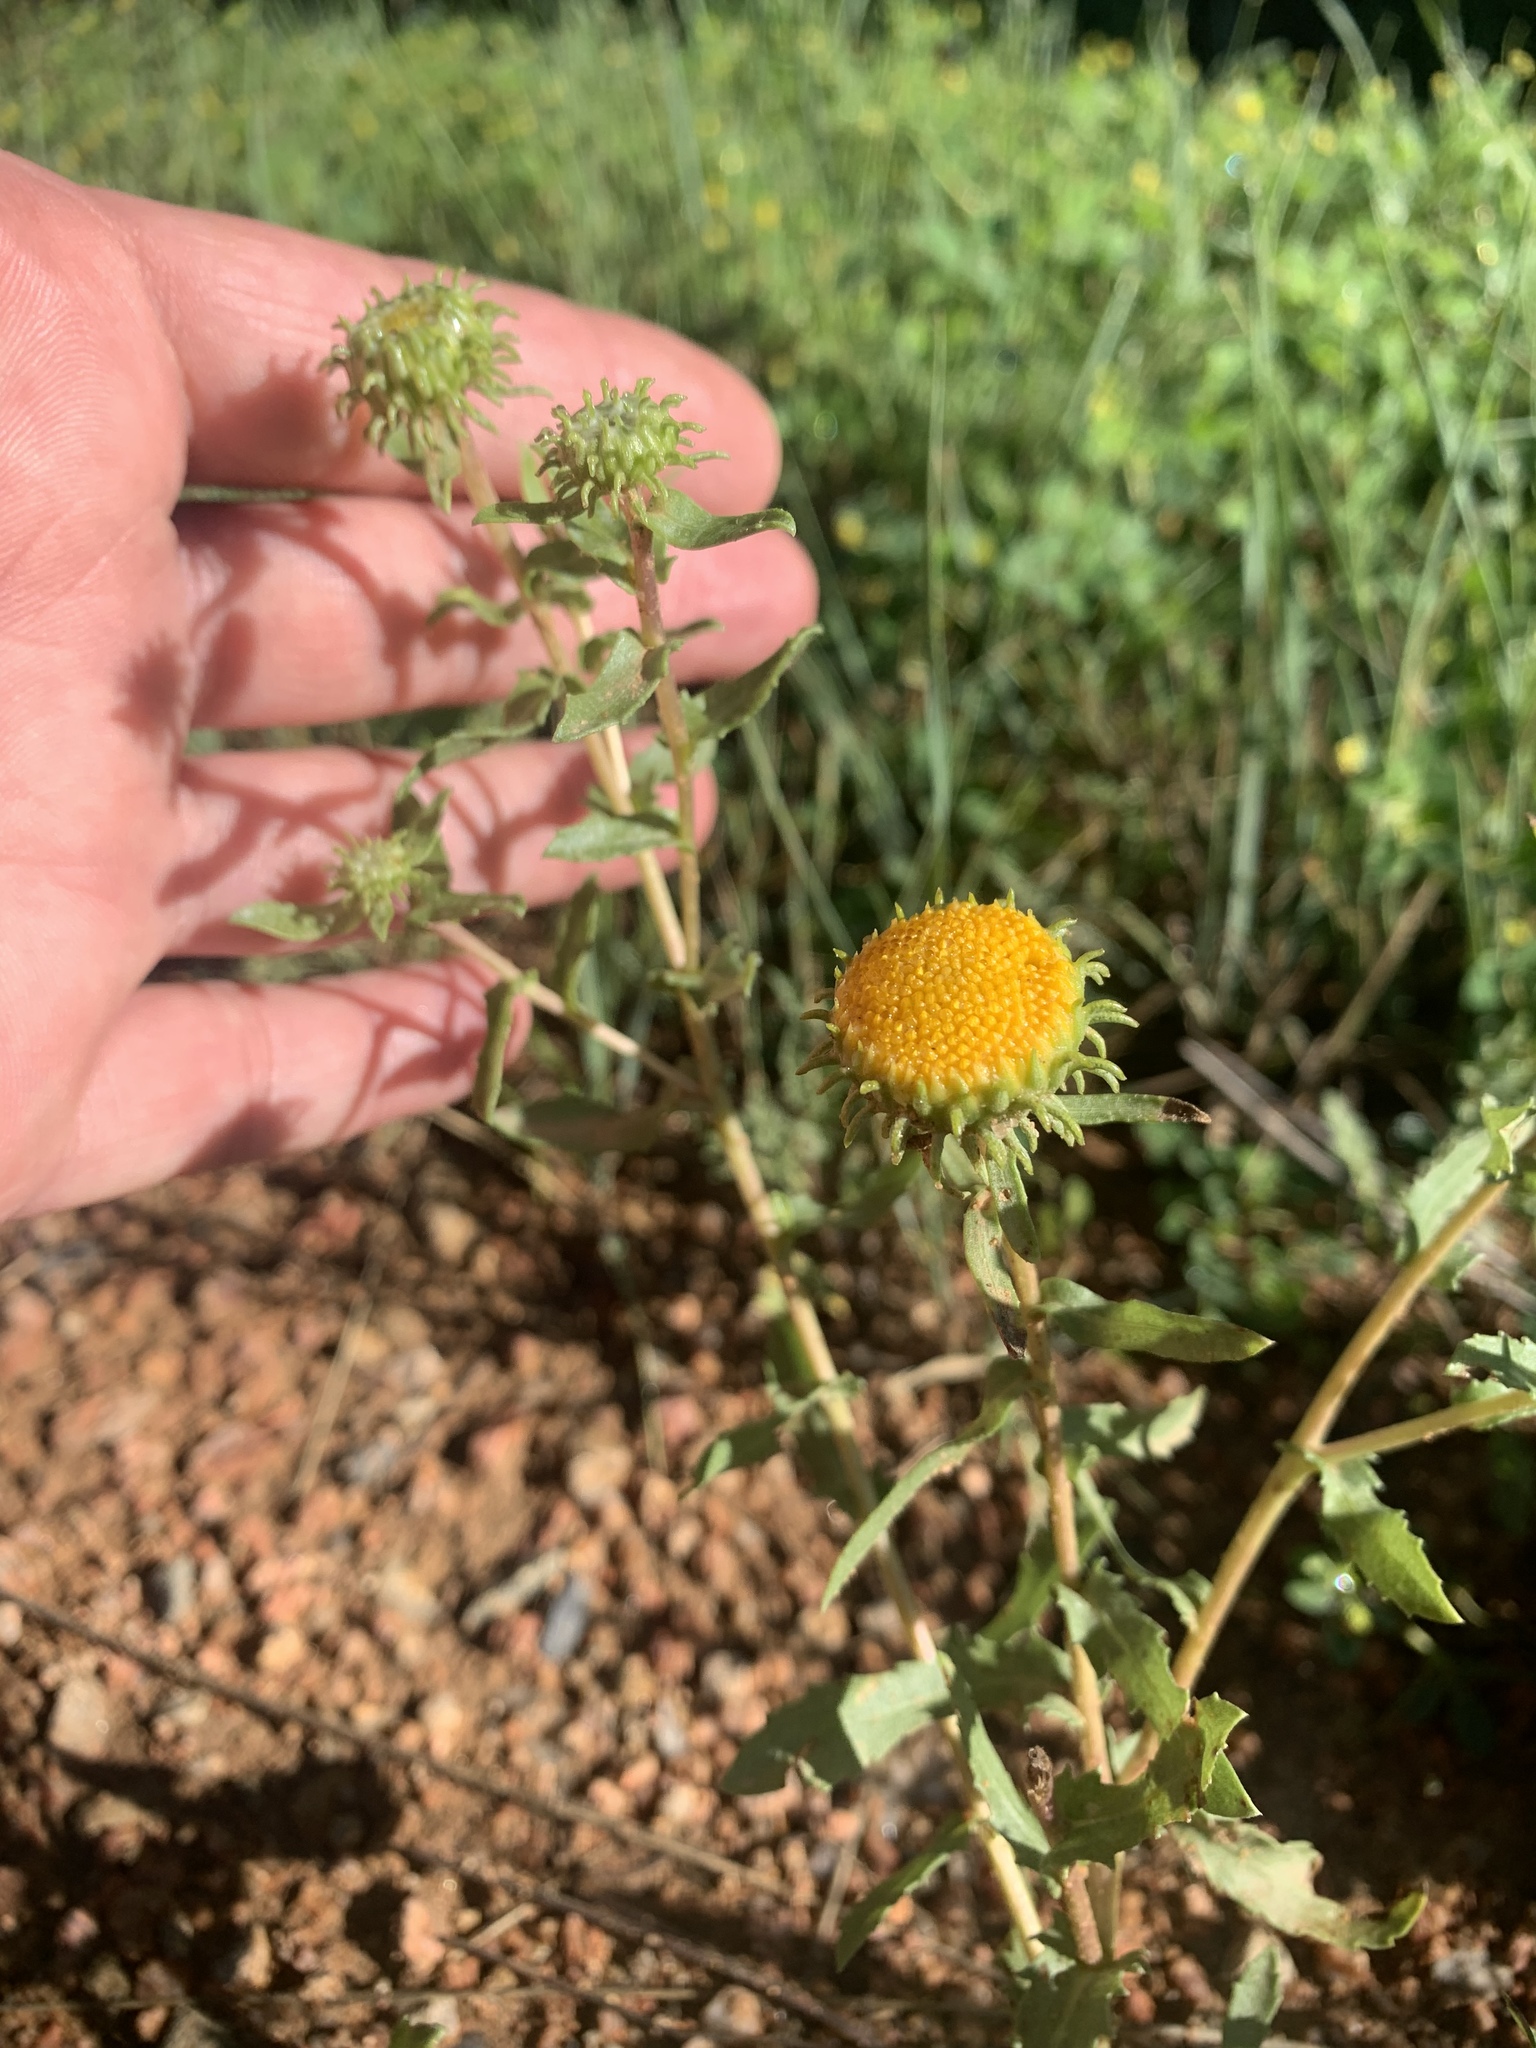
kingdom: Plantae
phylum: Tracheophyta
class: Magnoliopsida
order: Asterales
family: Asteraceae
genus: Grindelia
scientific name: Grindelia nuda
